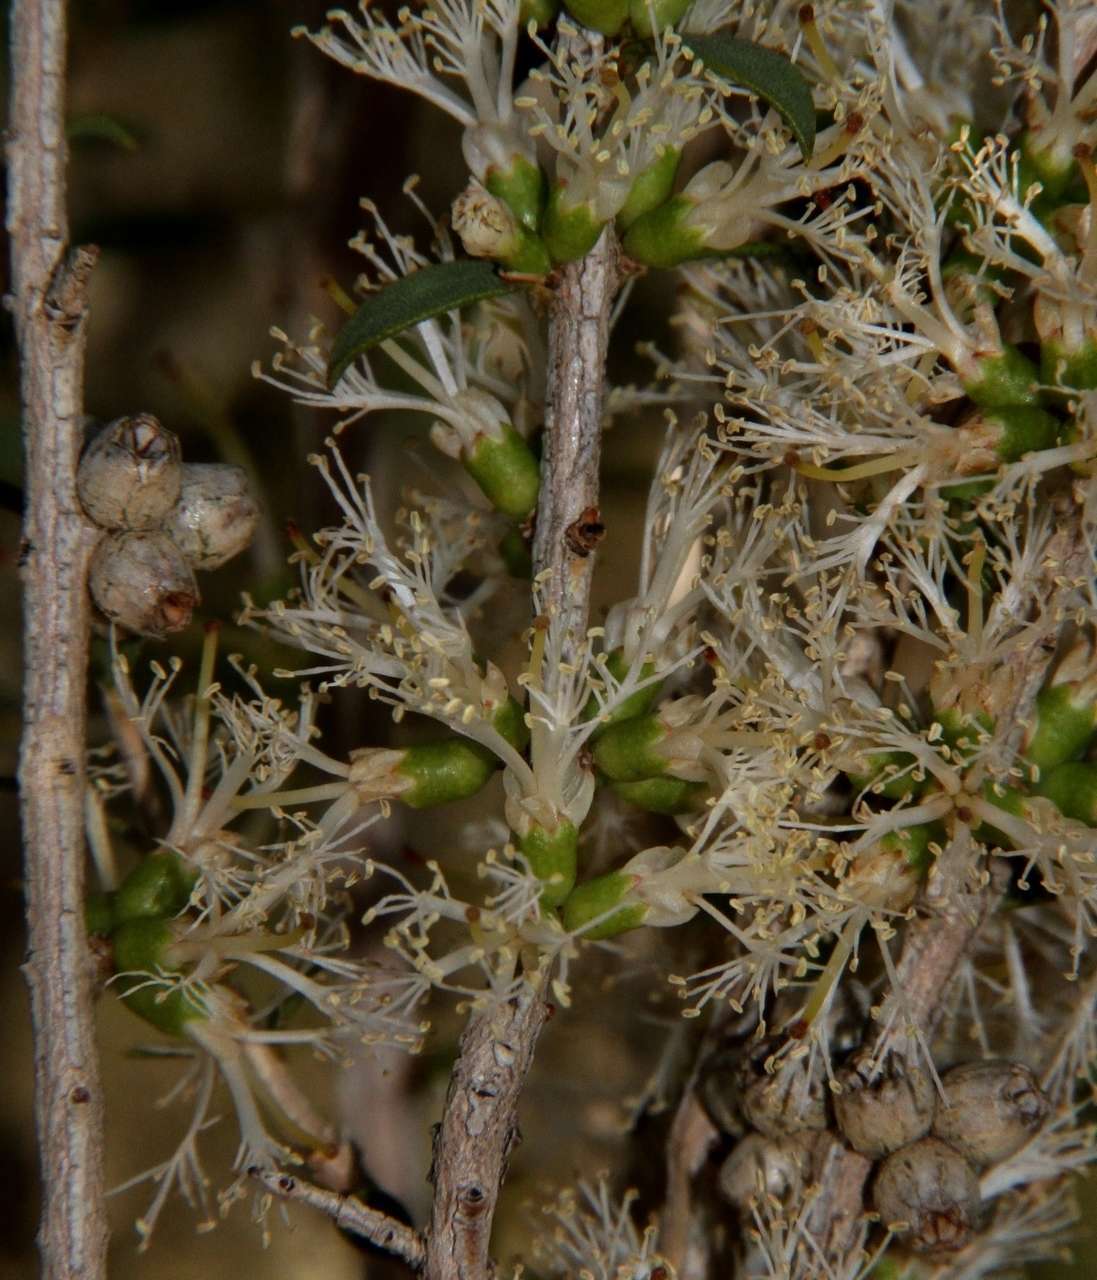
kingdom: Plantae
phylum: Tracheophyta
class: Magnoliopsida
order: Myrtales
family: Myrtaceae
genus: Melaleuca
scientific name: Melaleuca acuminata
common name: Mallee honey myrtle
